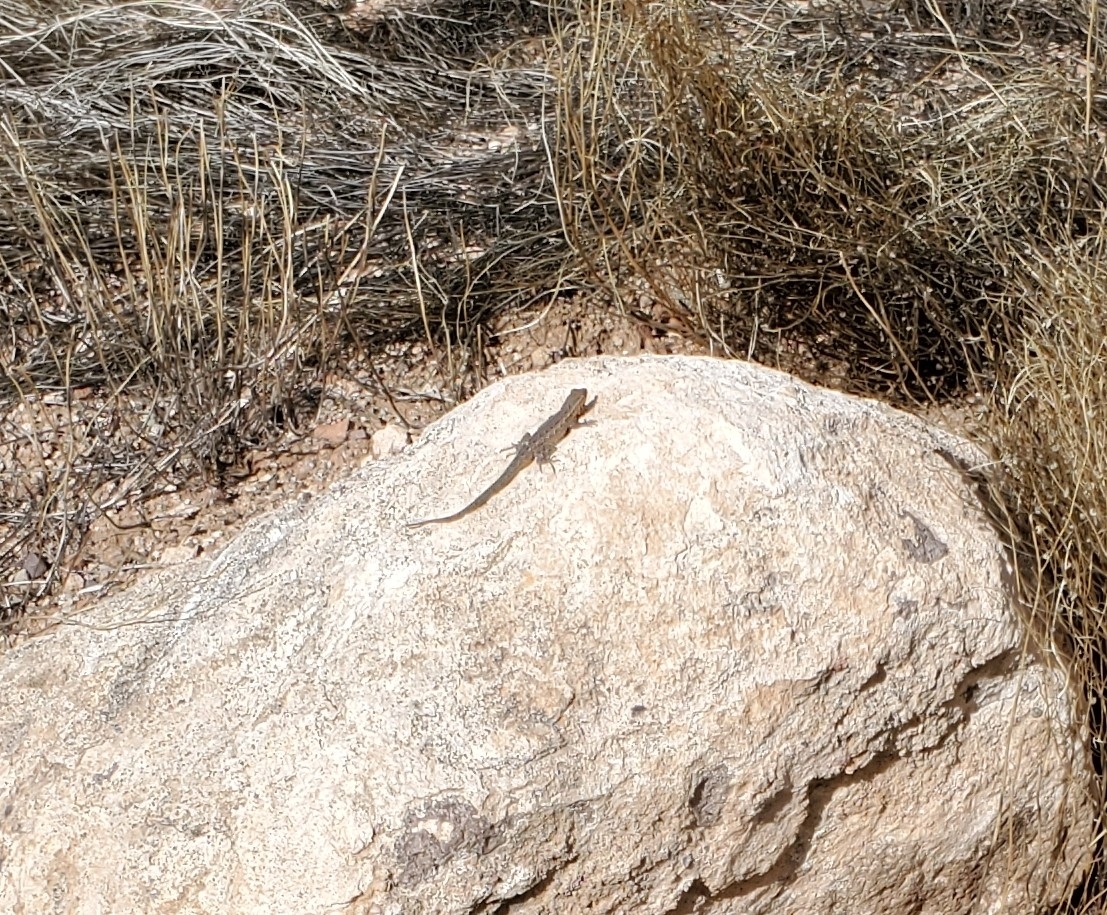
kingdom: Animalia
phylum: Chordata
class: Squamata
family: Phrynosomatidae
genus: Uta
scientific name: Uta stansburiana
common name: Side-blotched lizard
